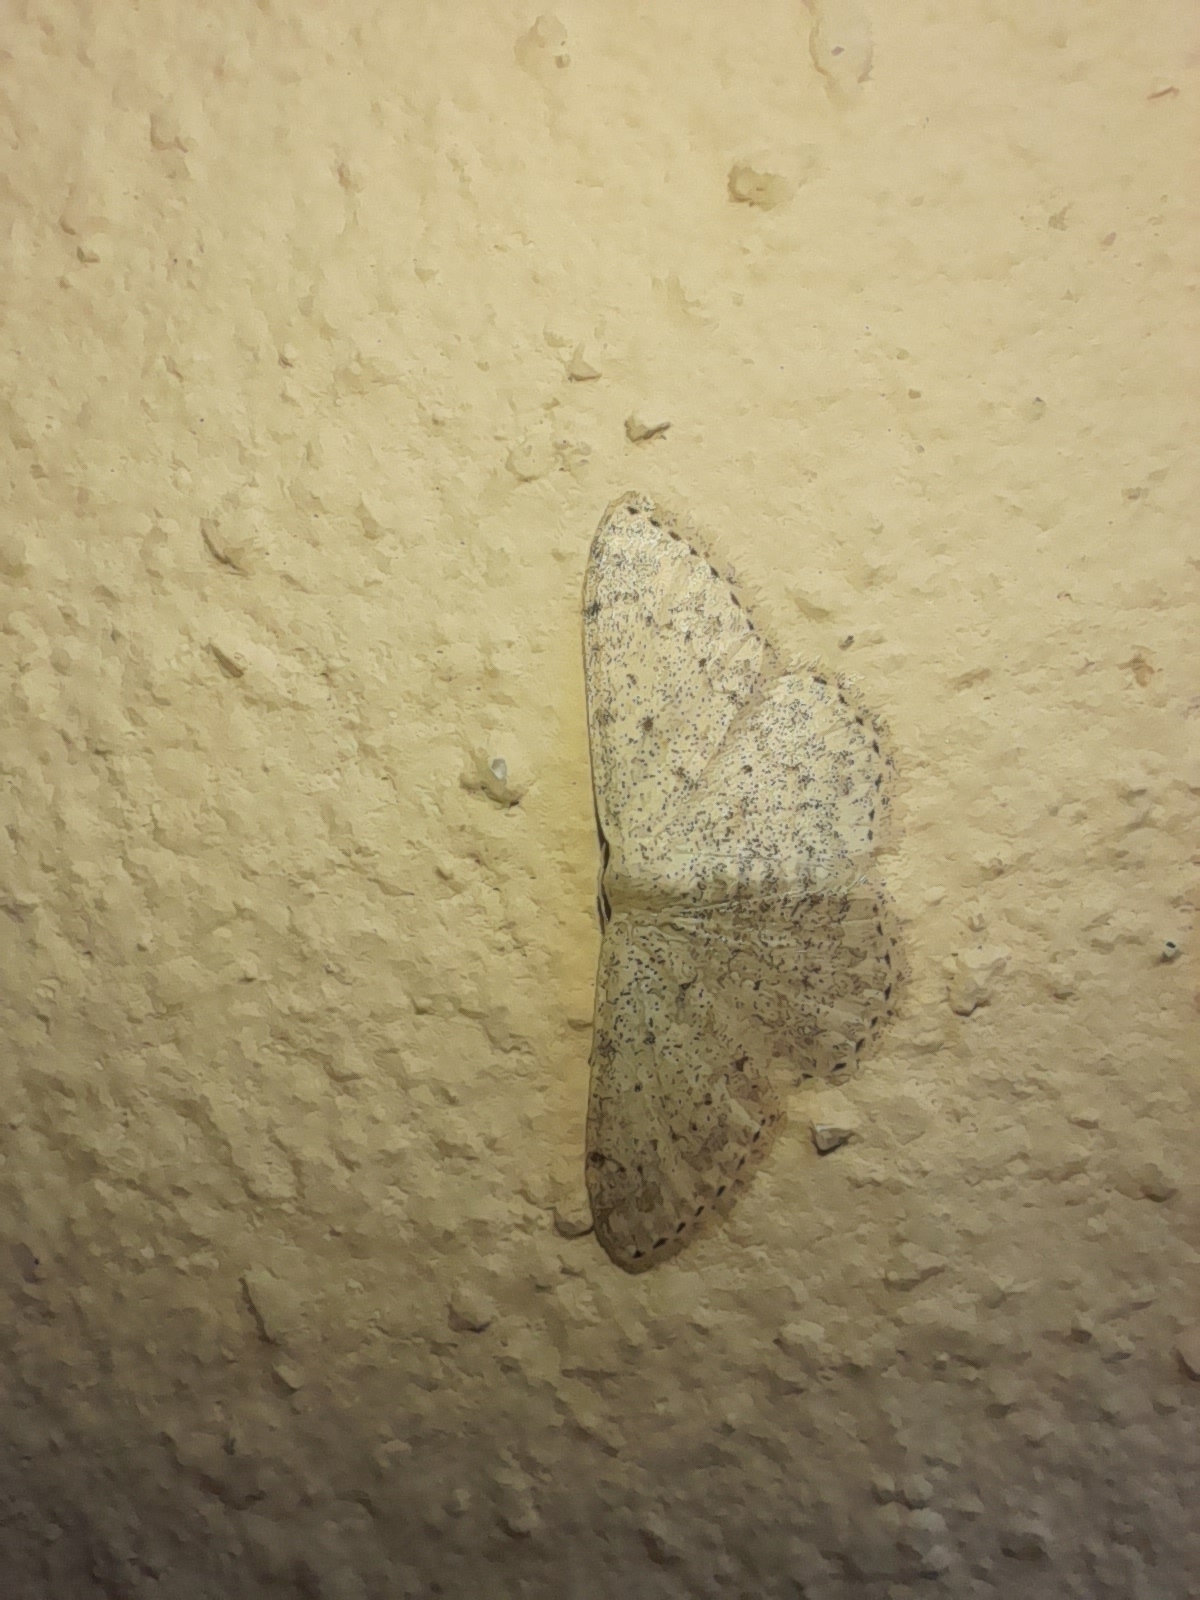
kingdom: Animalia
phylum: Arthropoda
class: Insecta
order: Lepidoptera
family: Geometridae
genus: Scopula
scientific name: Scopula marginepunctata
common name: Mullein wave
